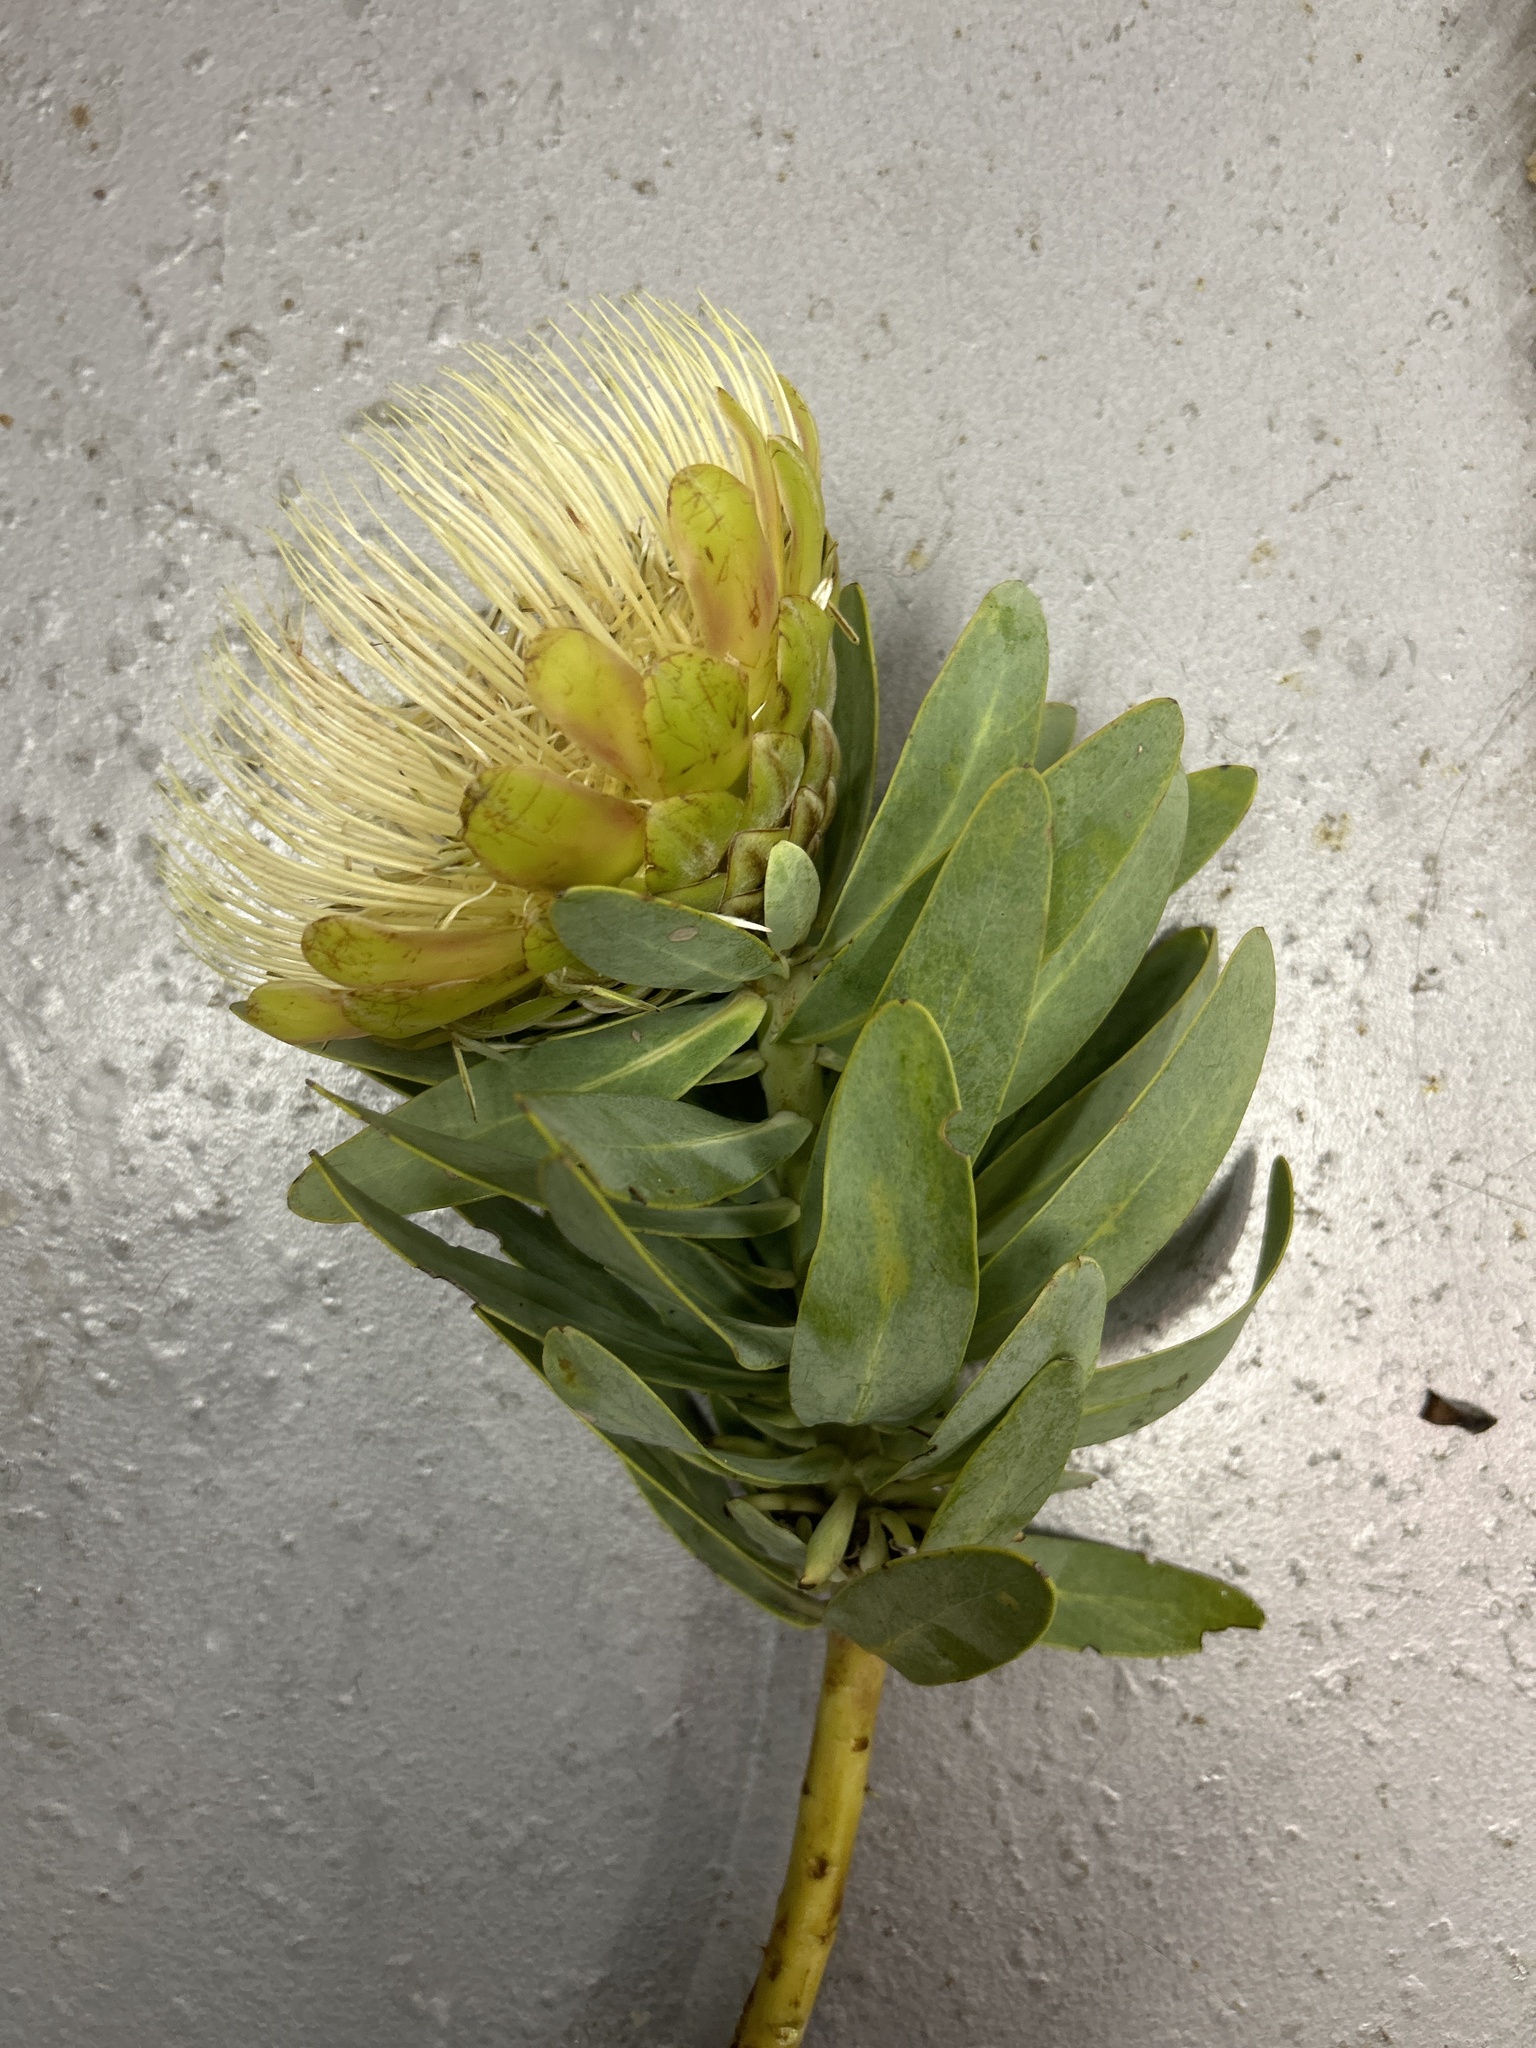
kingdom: Plantae
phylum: Tracheophyta
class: Magnoliopsida
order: Proteales
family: Proteaceae
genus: Protea
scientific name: Protea nitida
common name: Tree protea
